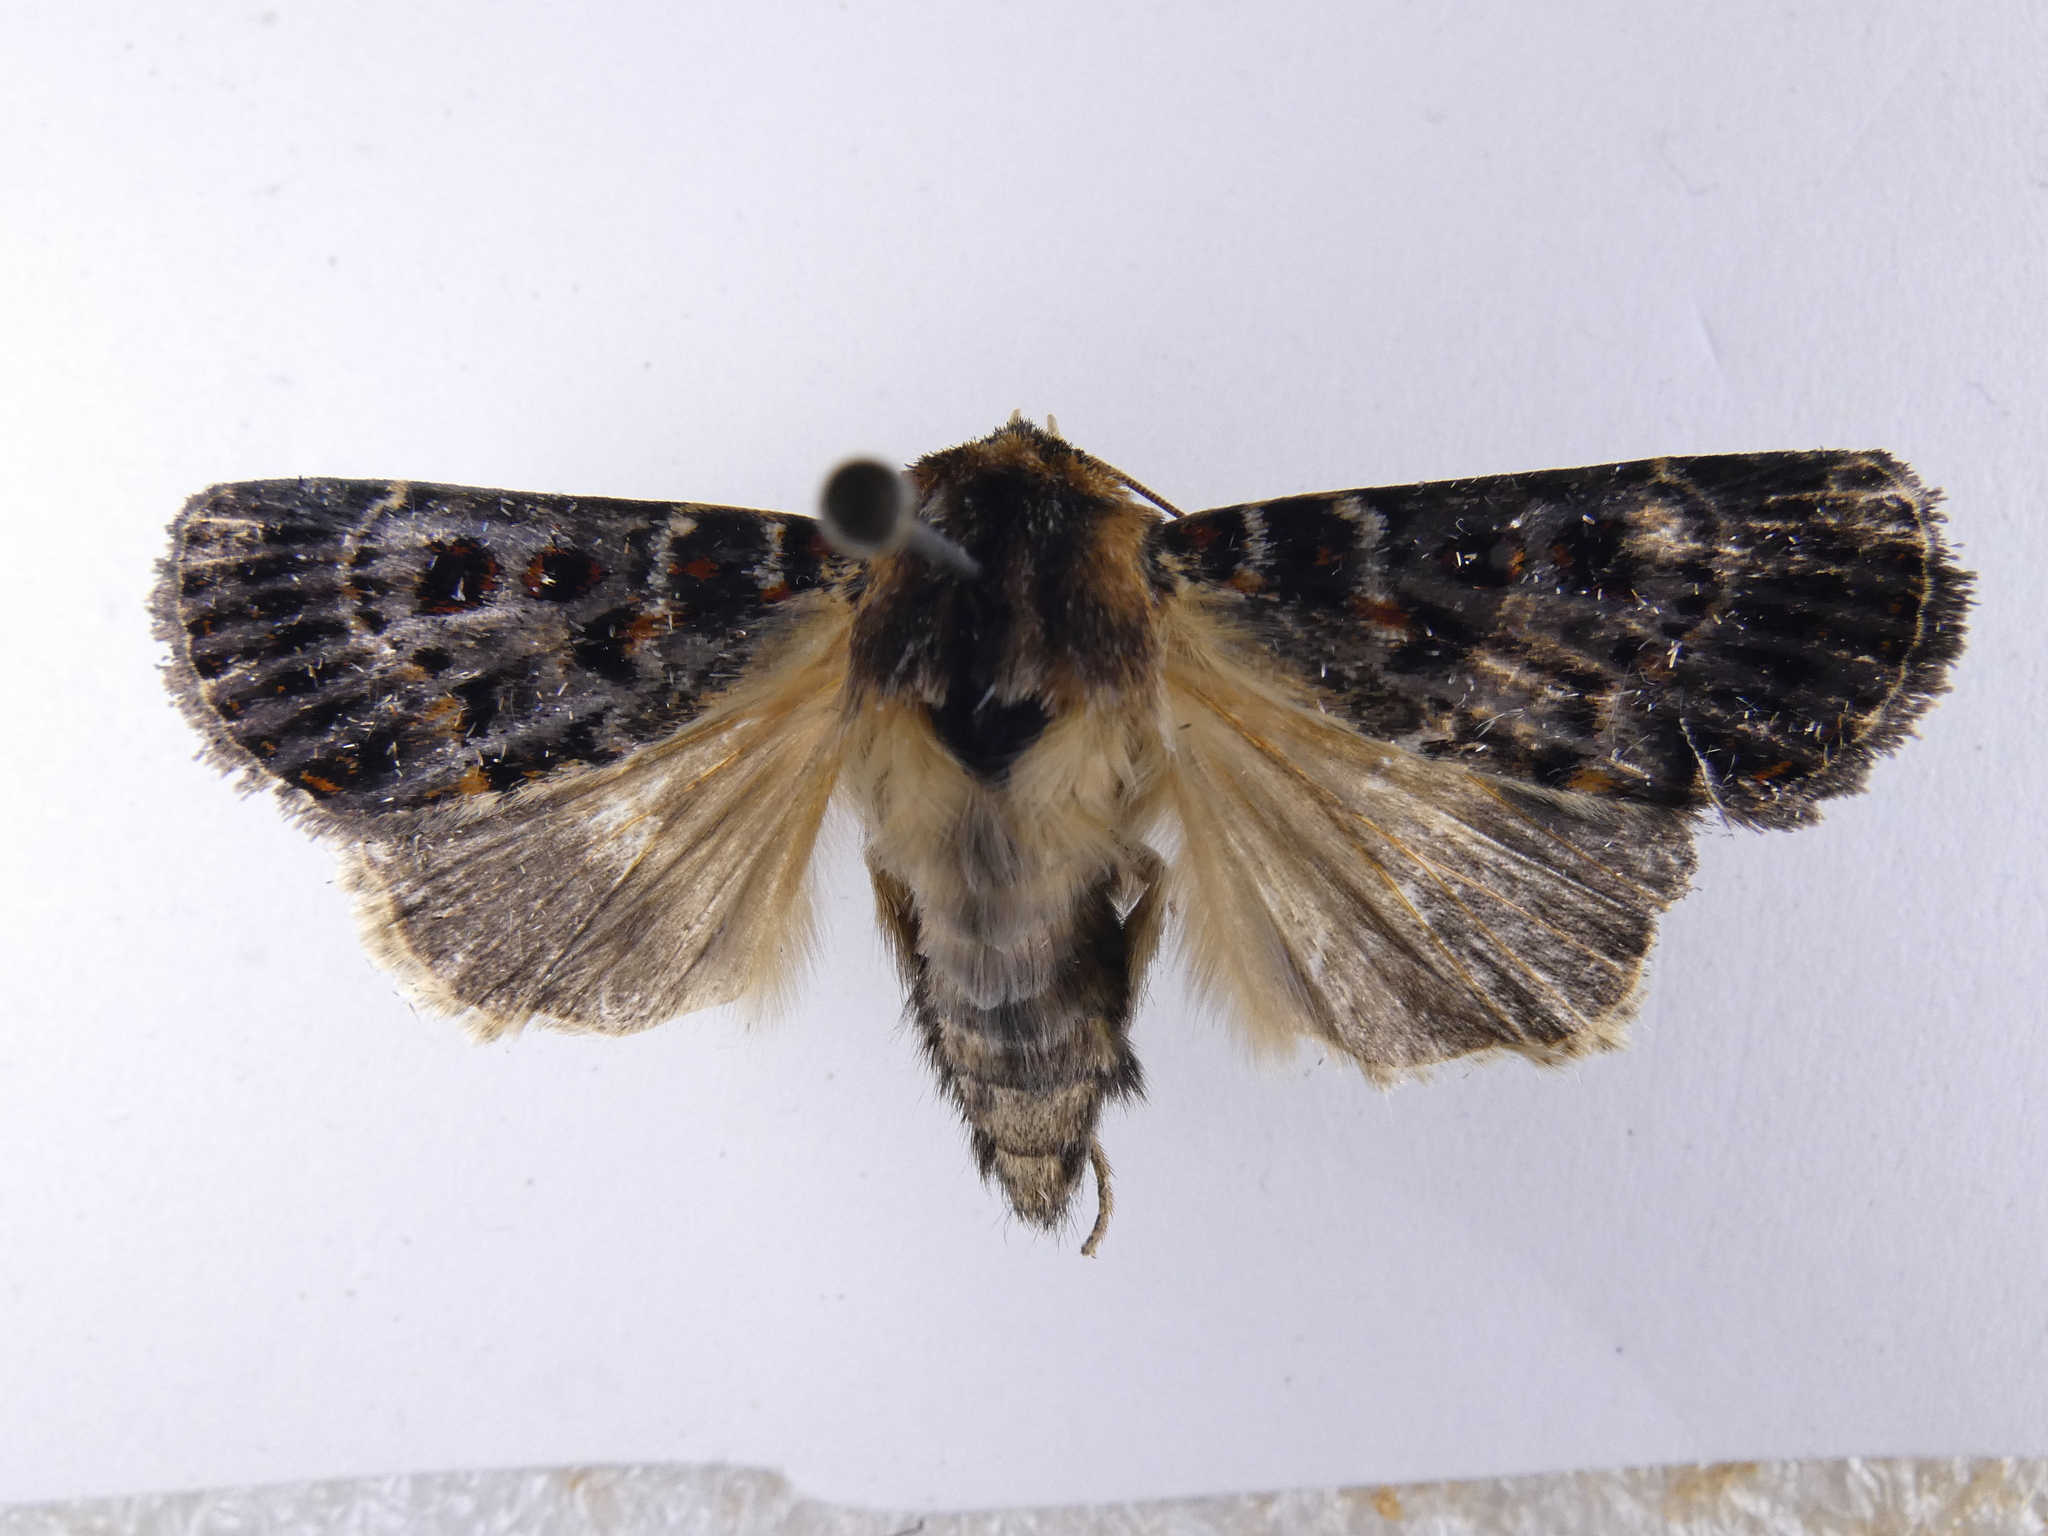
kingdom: Animalia
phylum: Arthropoda
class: Insecta
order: Lepidoptera
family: Noctuidae
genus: Proteuxoa
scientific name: Proteuxoa sanguinipuncta
